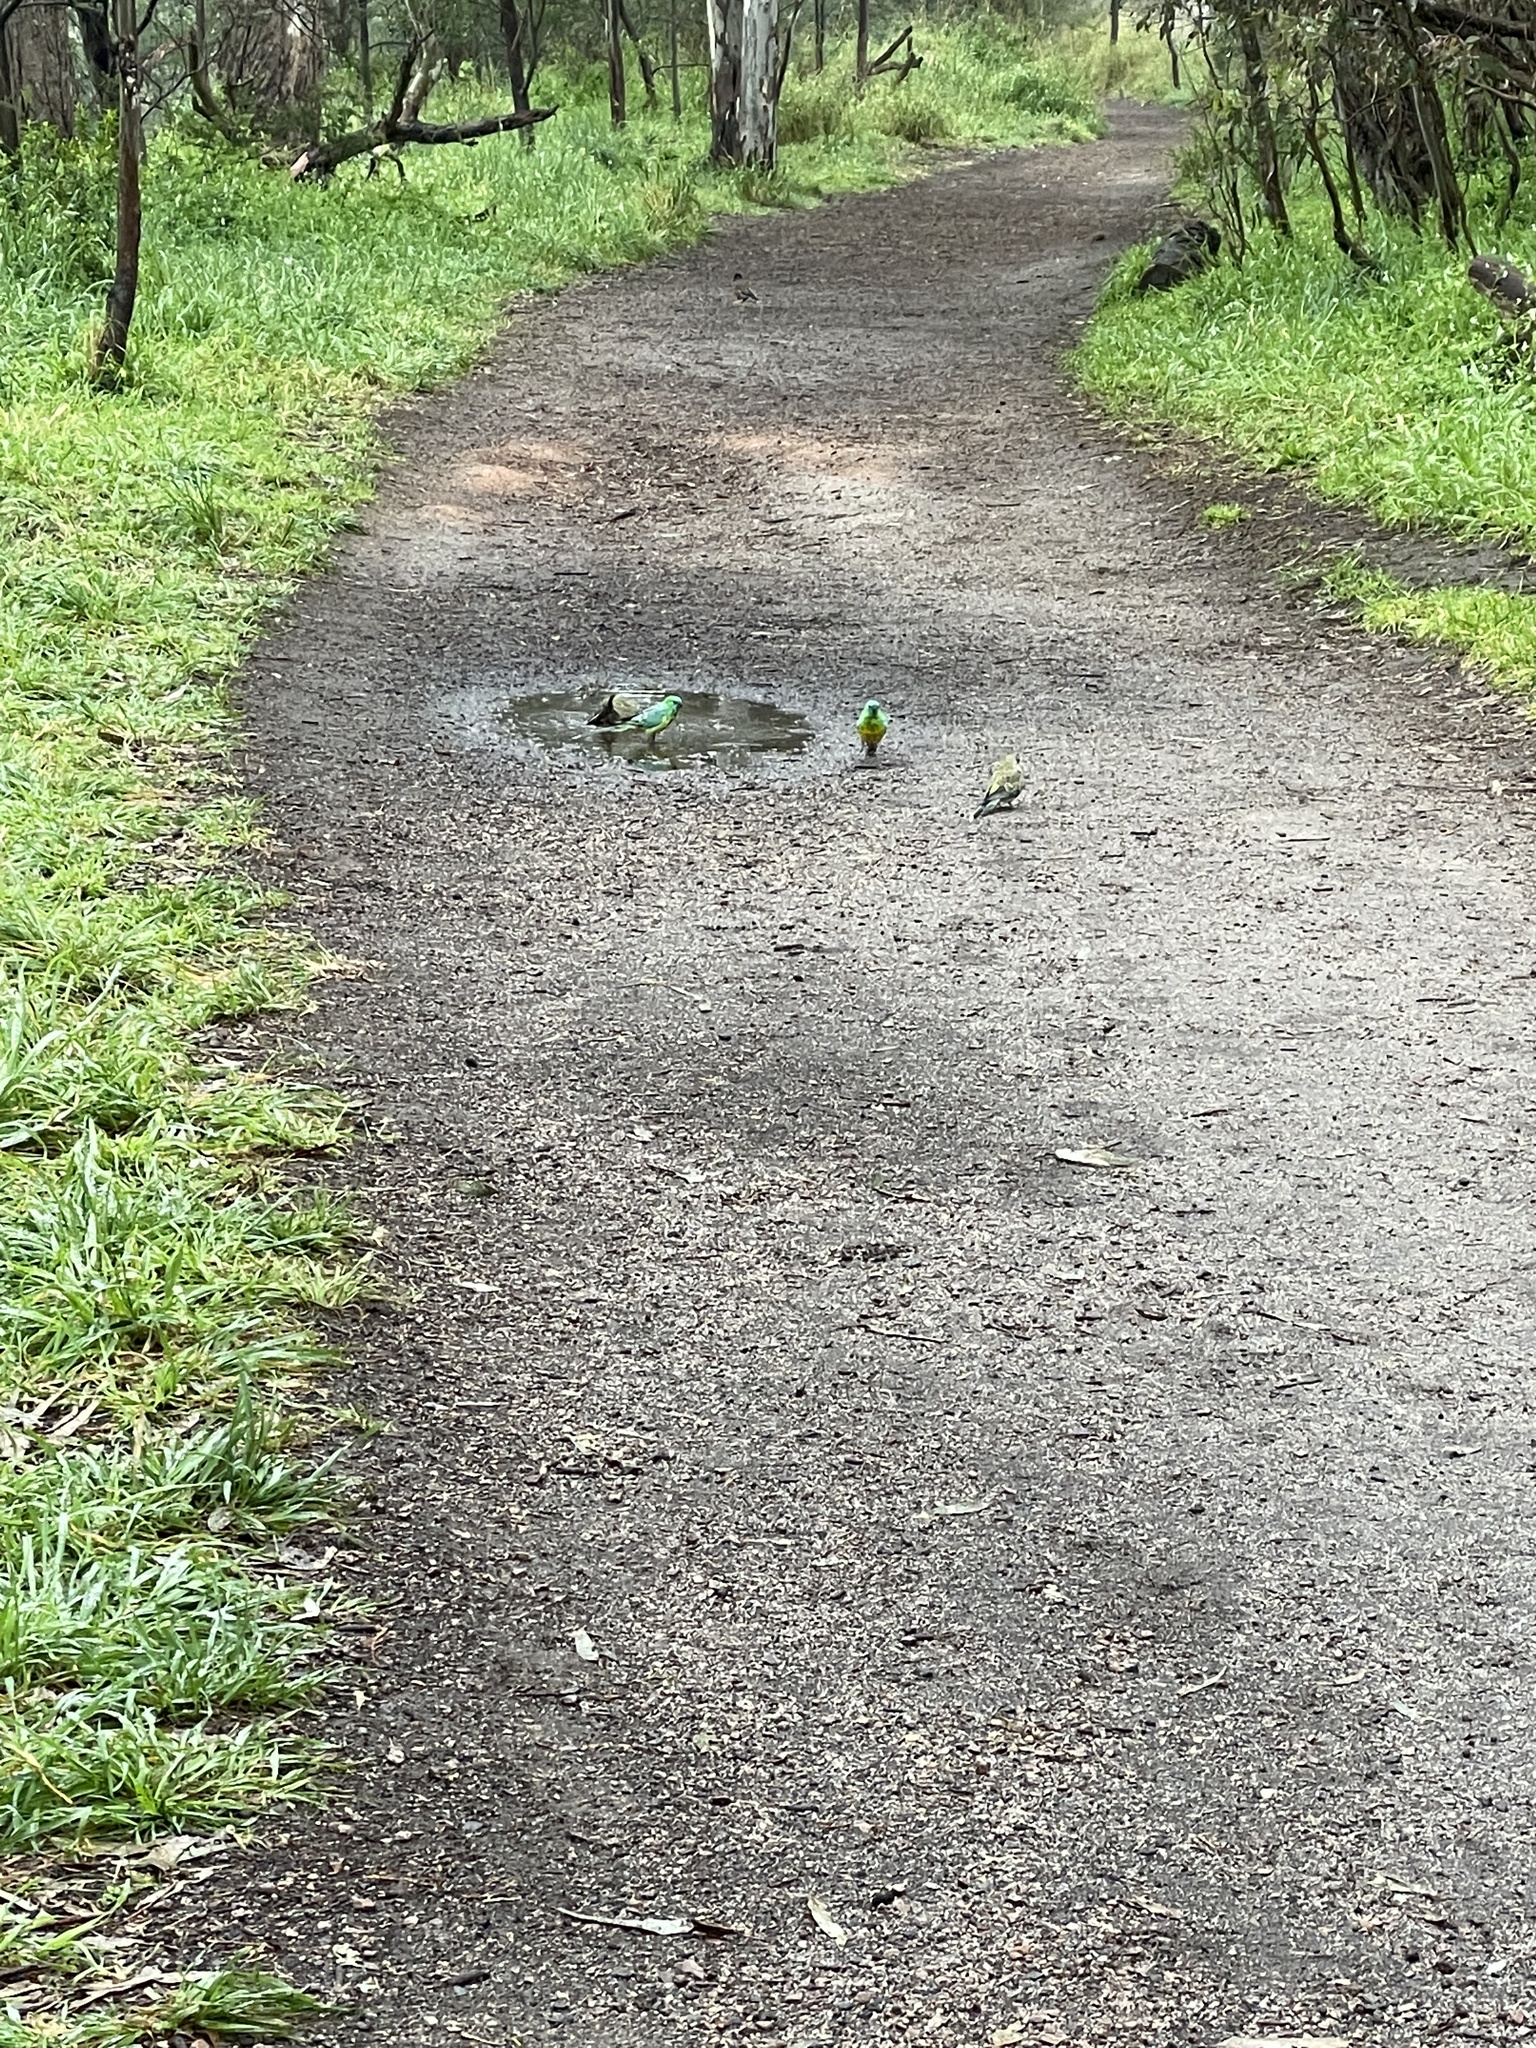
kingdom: Animalia
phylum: Chordata
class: Aves
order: Psittaciformes
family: Psittacidae
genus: Psephotus
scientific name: Psephotus haematonotus
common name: Red-rumped parrot
